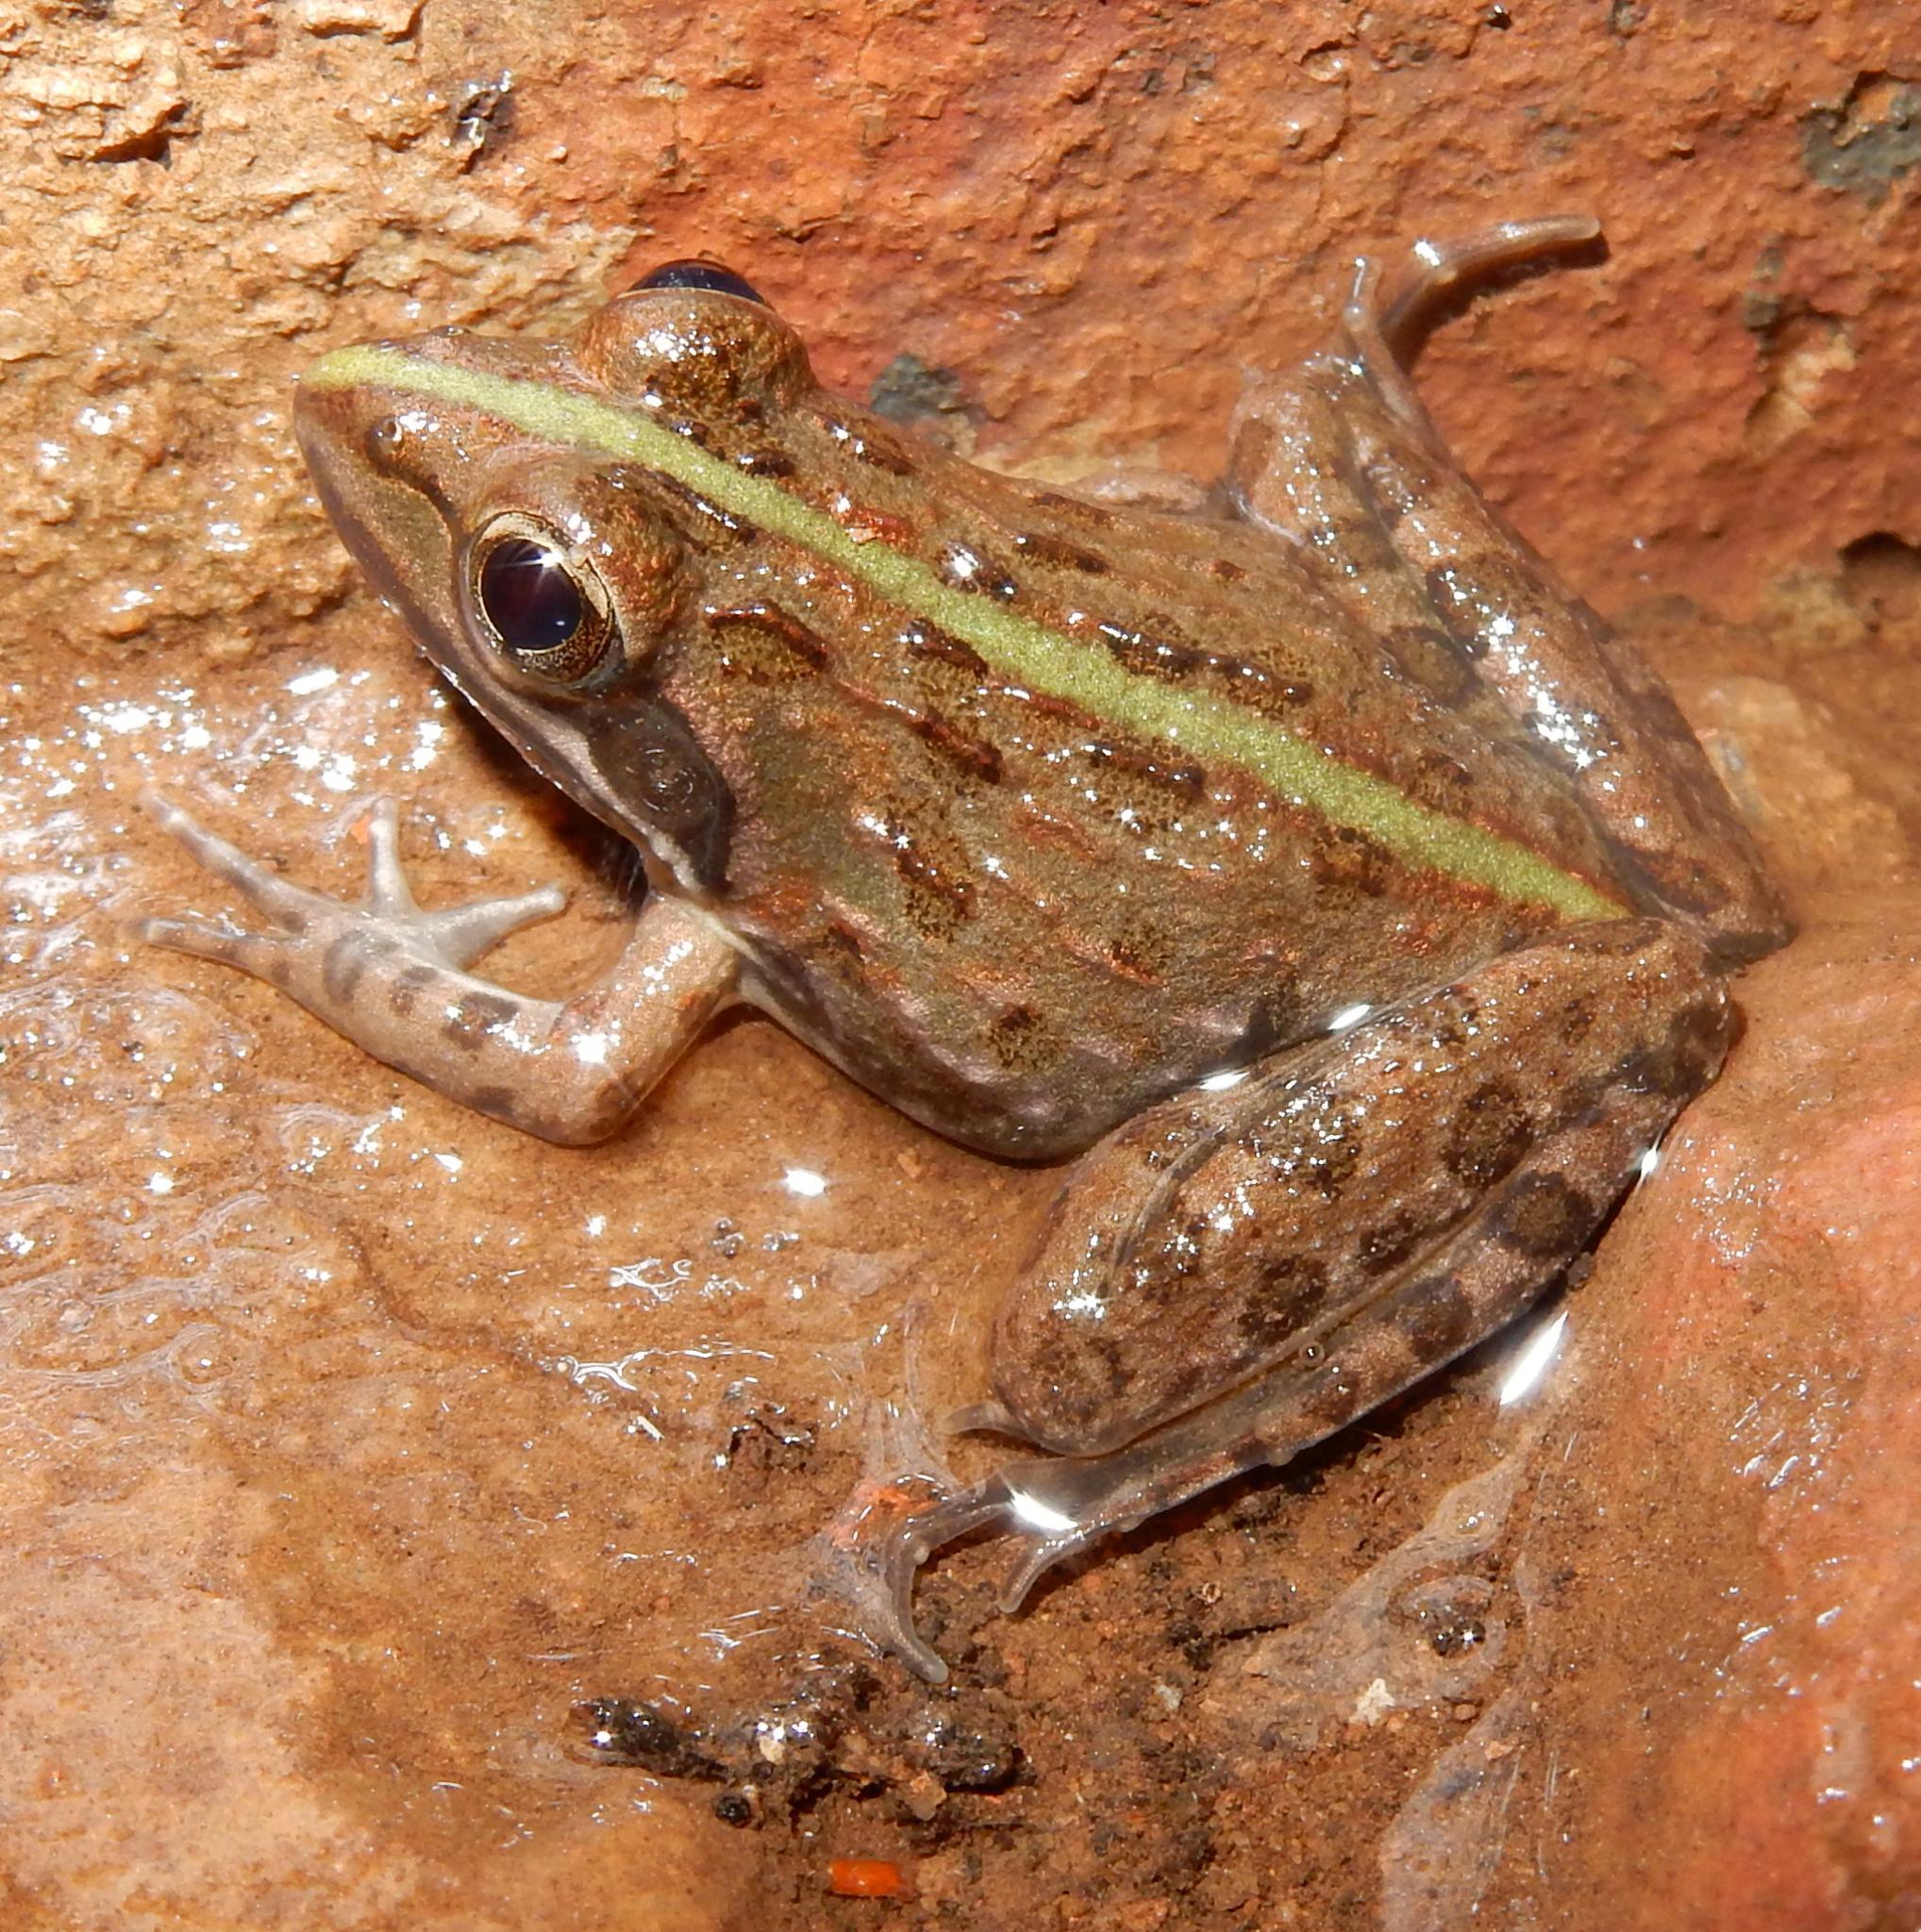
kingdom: Animalia
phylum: Chordata
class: Amphibia
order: Anura
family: Pyxicephalidae
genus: Amietia
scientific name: Amietia delalandii
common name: Delalande's river frog
